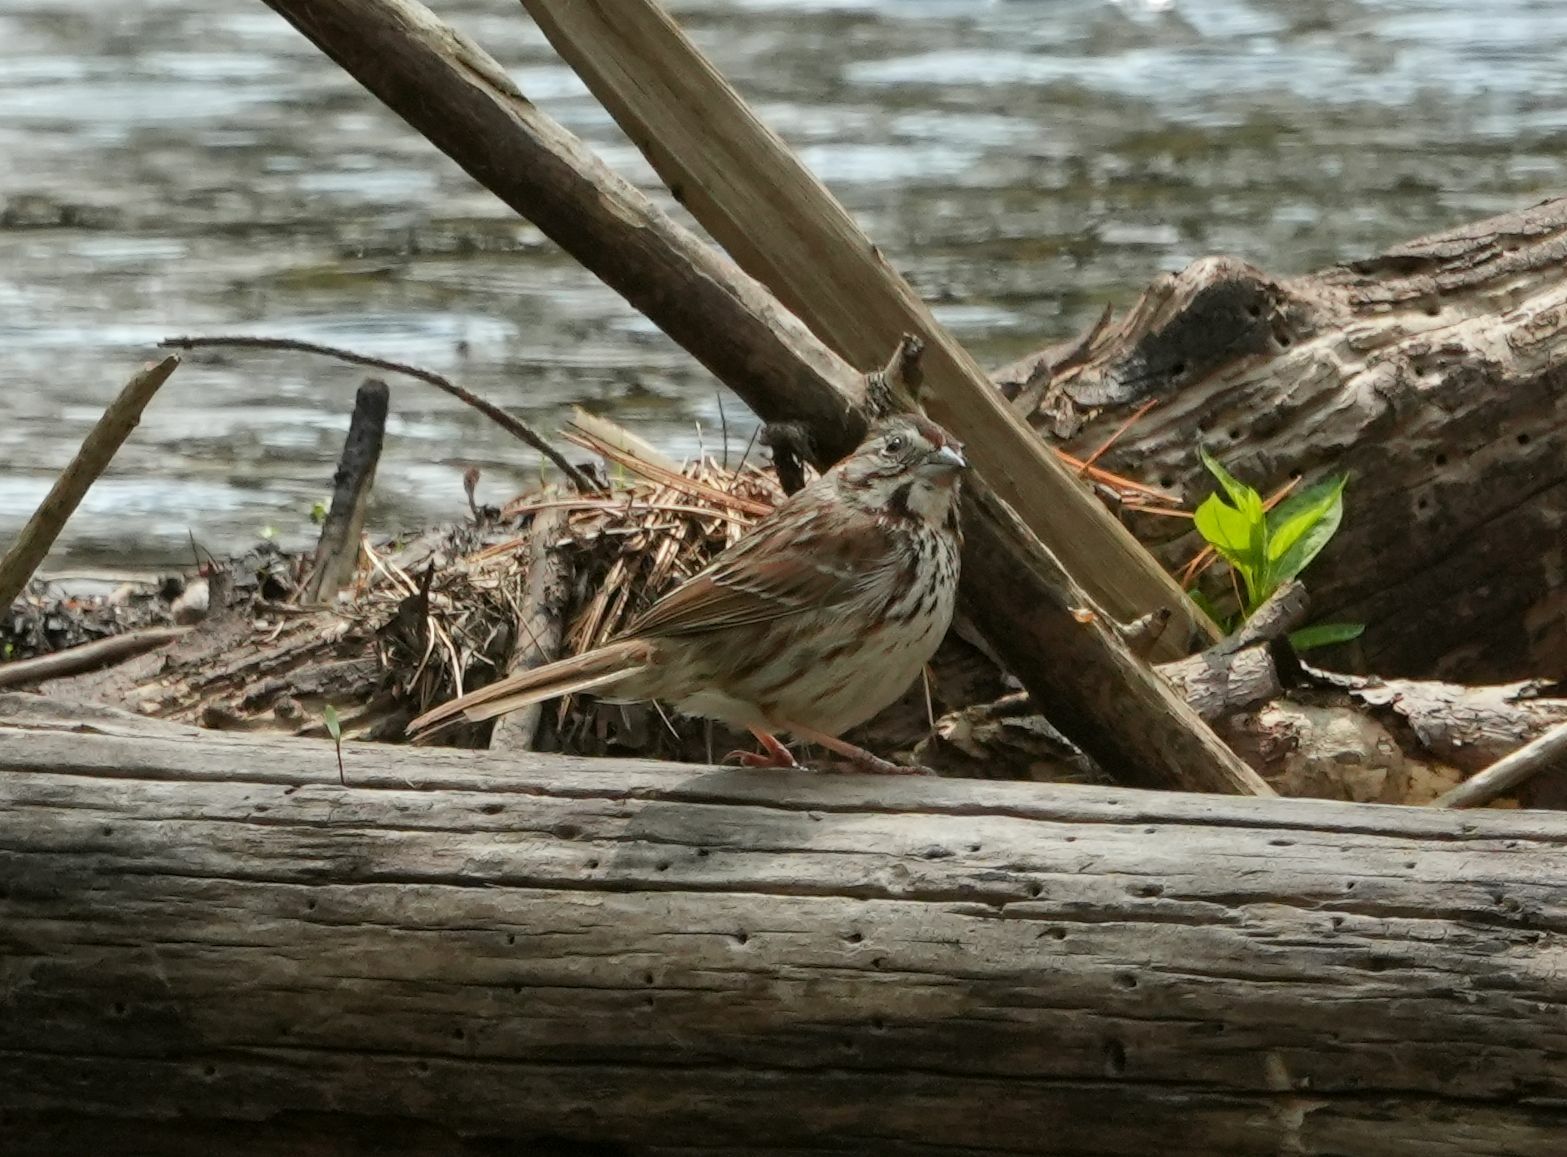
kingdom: Animalia
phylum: Chordata
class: Aves
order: Passeriformes
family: Passerellidae
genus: Melospiza
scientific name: Melospiza melodia
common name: Song sparrow
